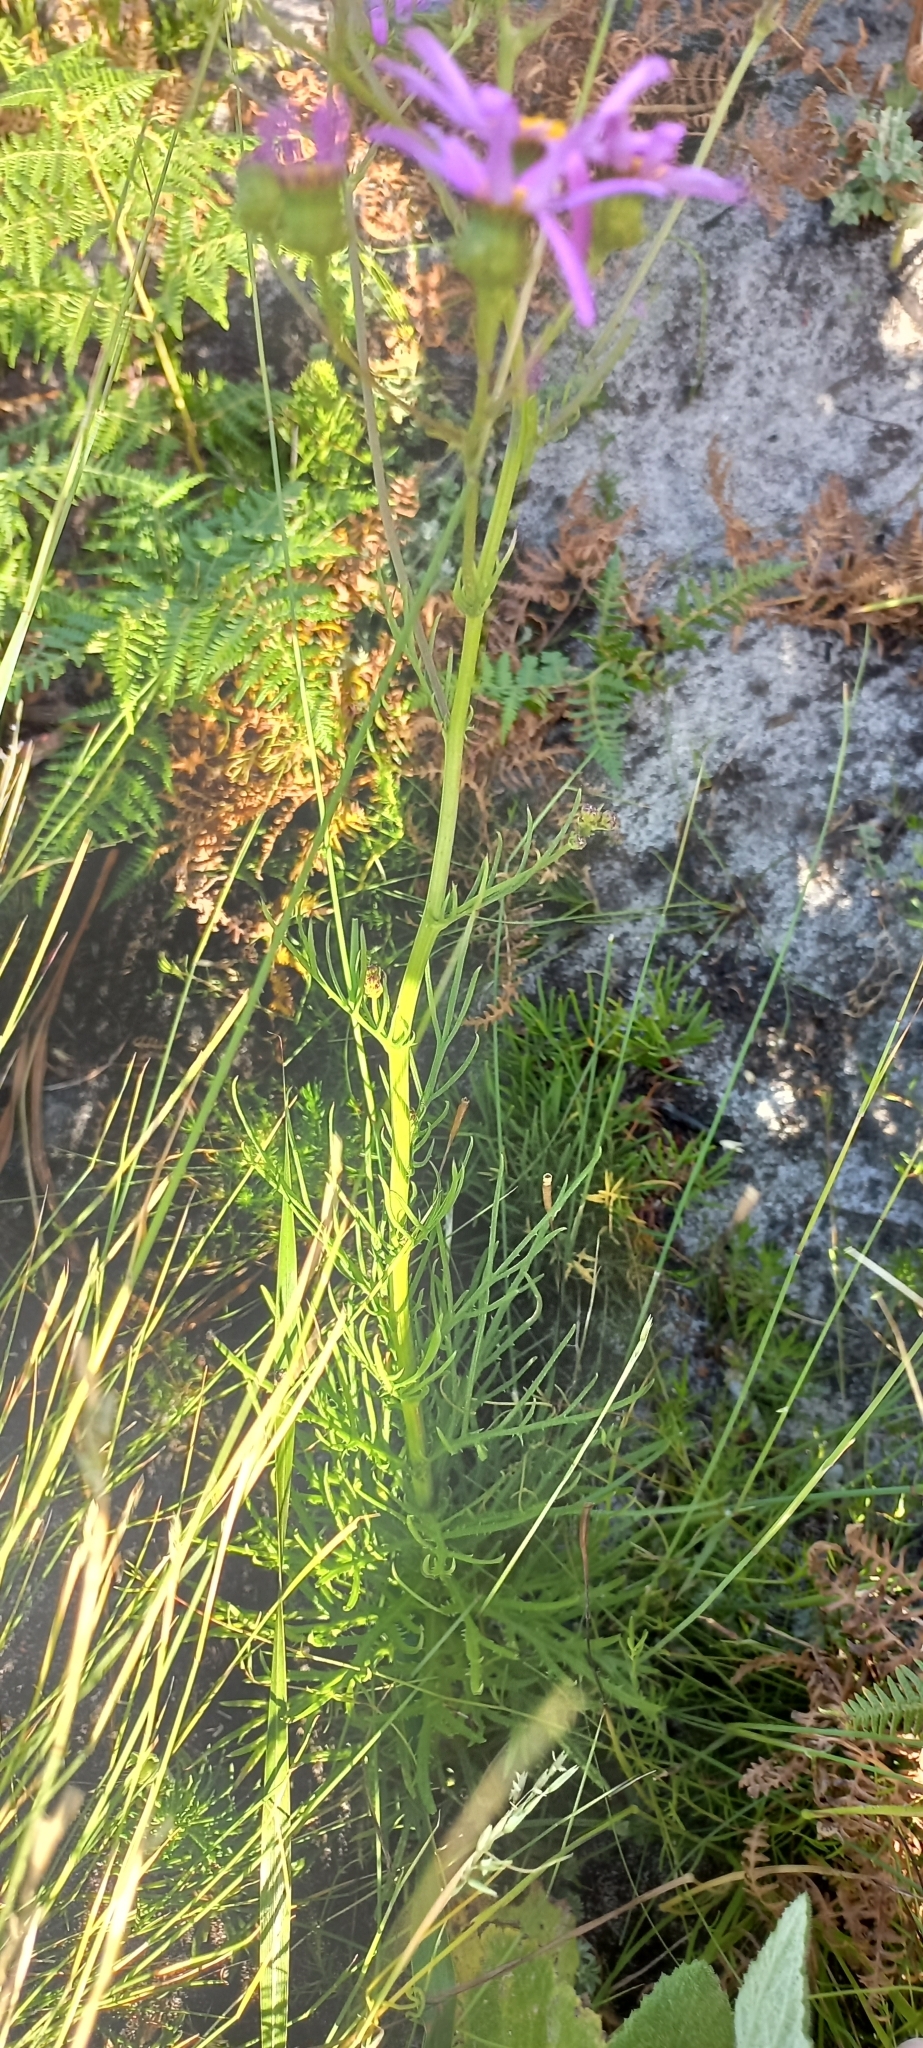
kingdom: Plantae
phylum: Tracheophyta
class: Magnoliopsida
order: Asterales
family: Asteraceae
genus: Senecio
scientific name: Senecio umbellatus
